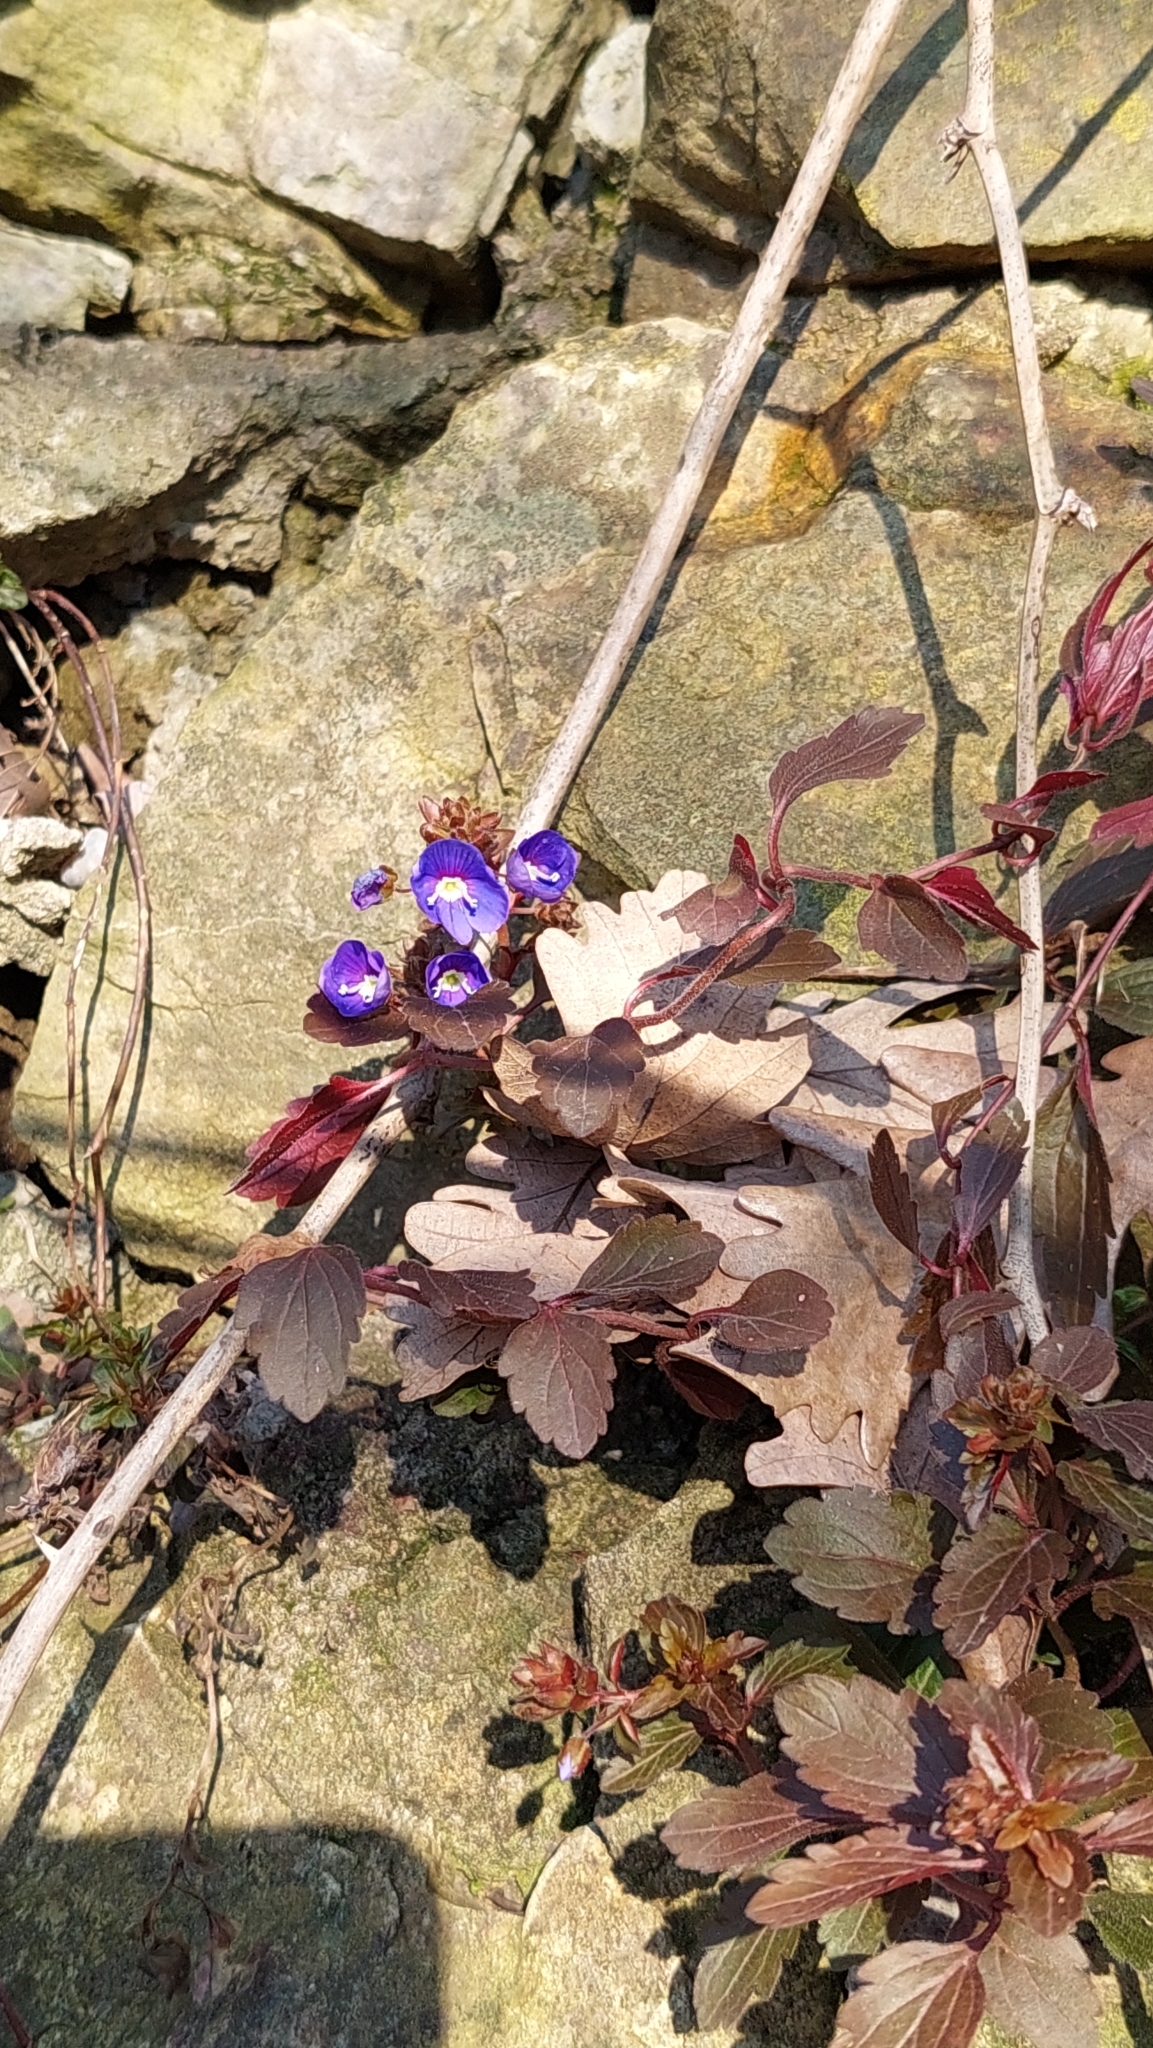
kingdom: Plantae
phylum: Tracheophyta
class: Magnoliopsida
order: Lamiales
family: Plantaginaceae
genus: Veronica
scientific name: Veronica
